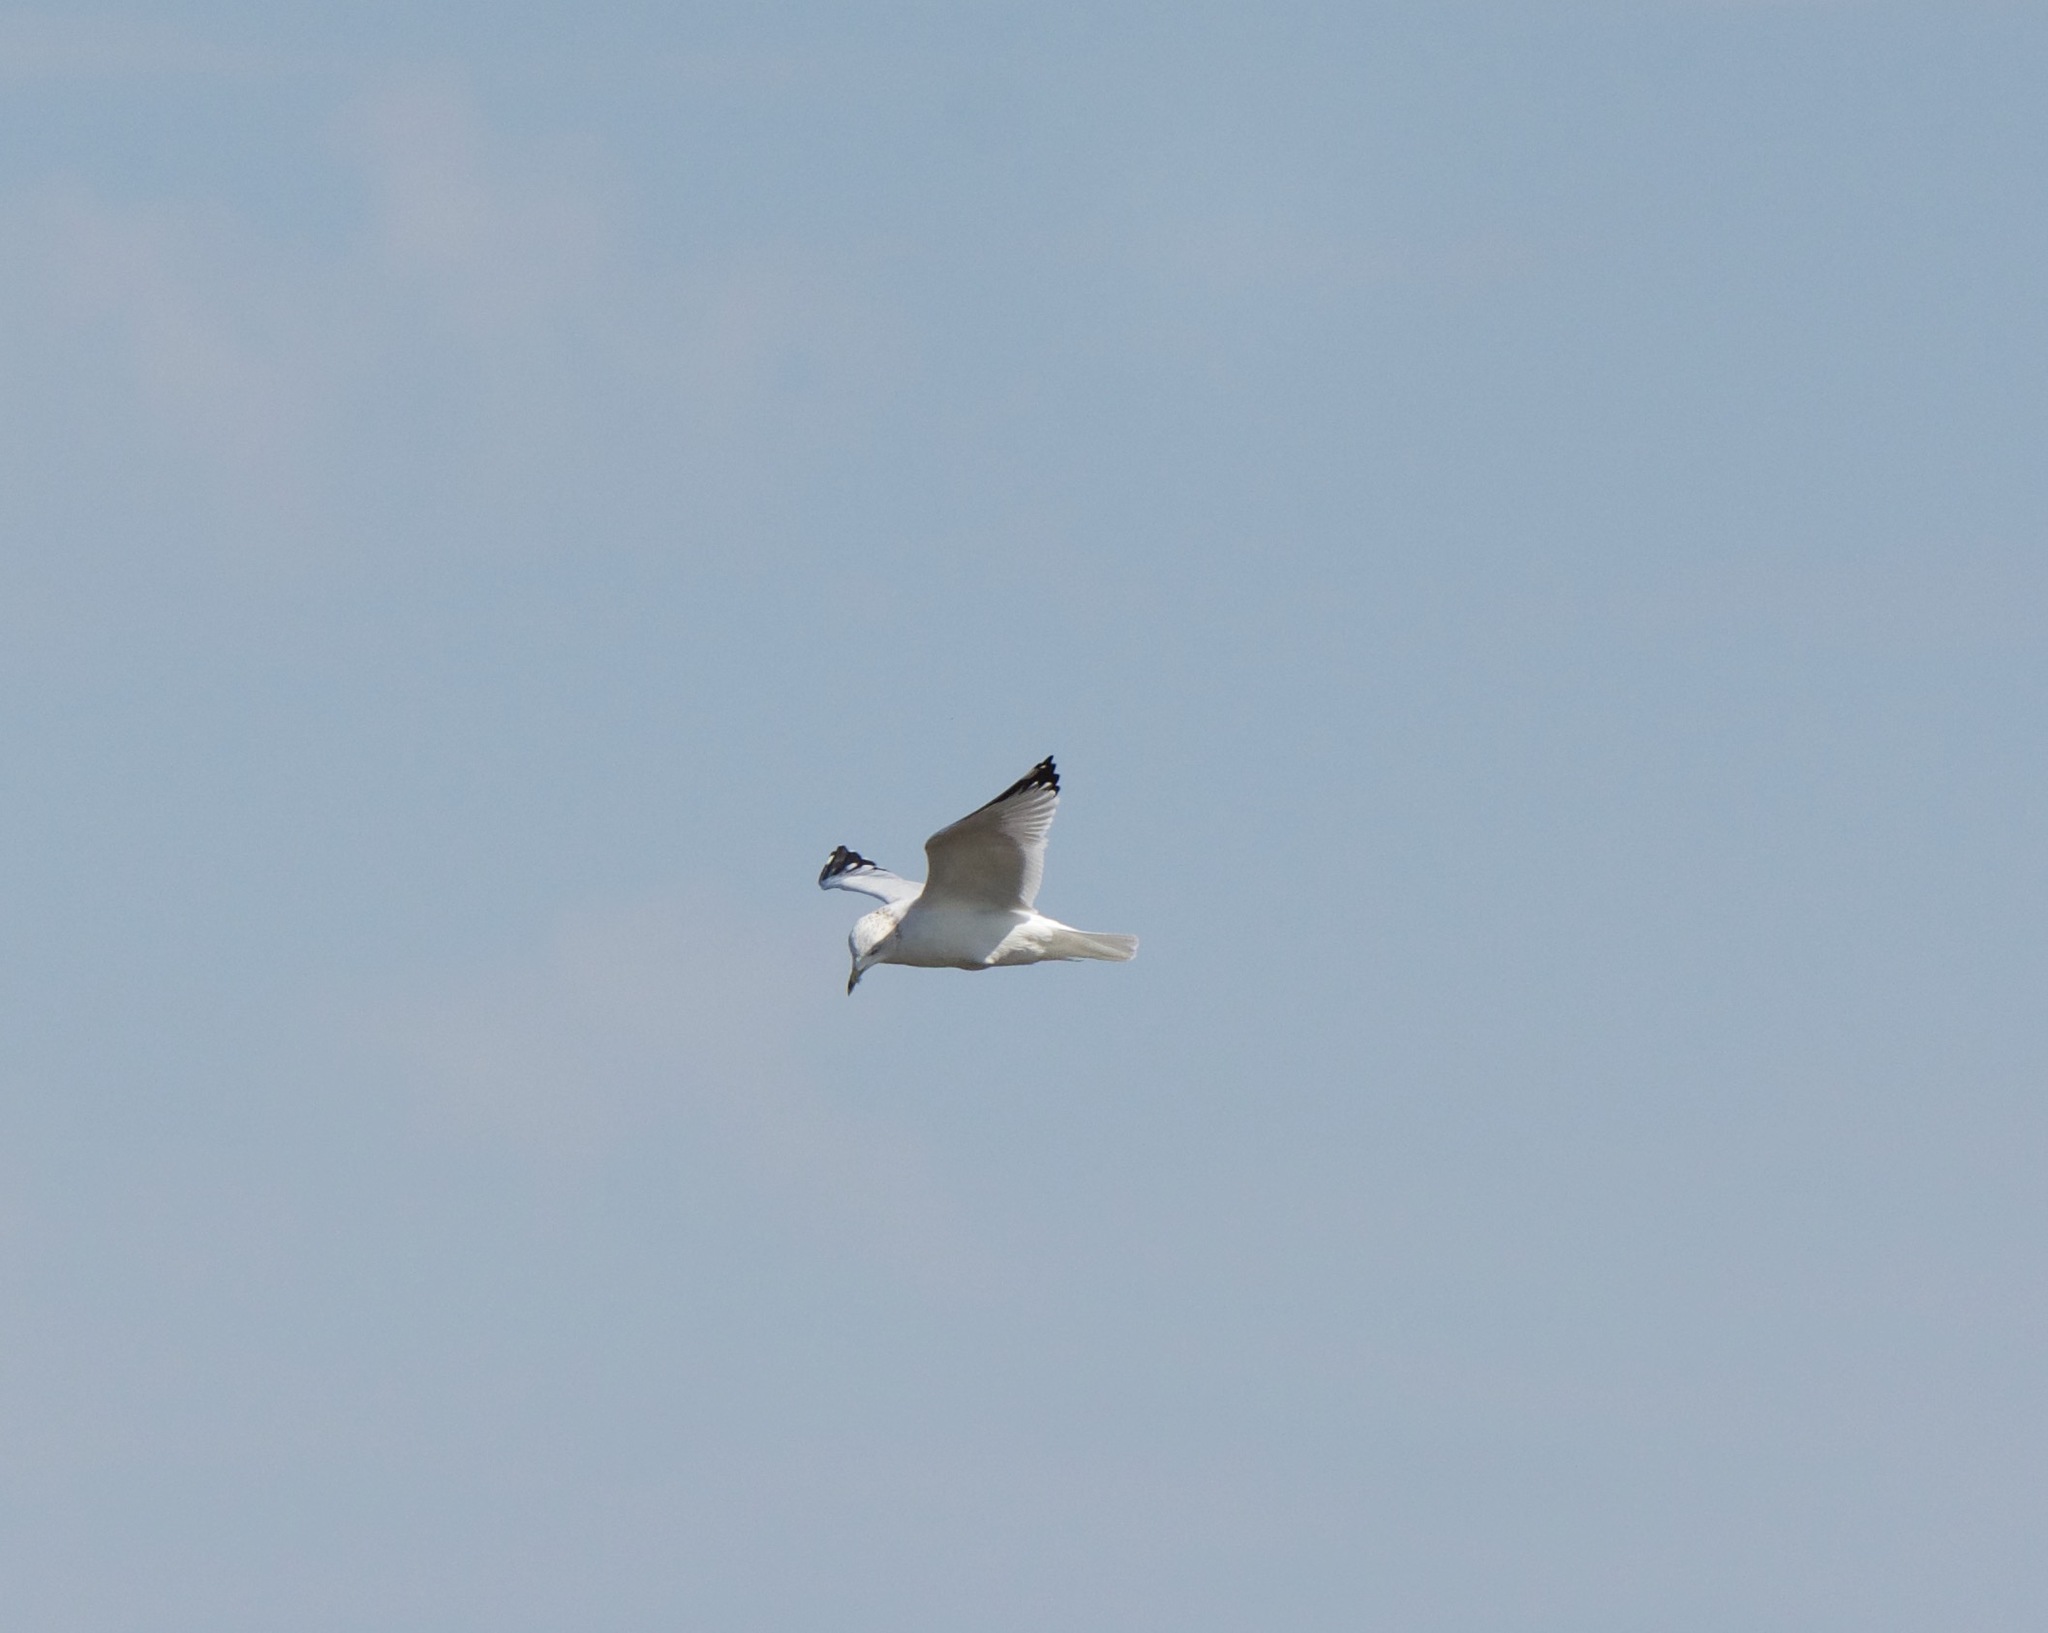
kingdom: Animalia
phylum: Chordata
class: Aves
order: Charadriiformes
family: Laridae
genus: Larus
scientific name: Larus delawarensis
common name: Ring-billed gull
